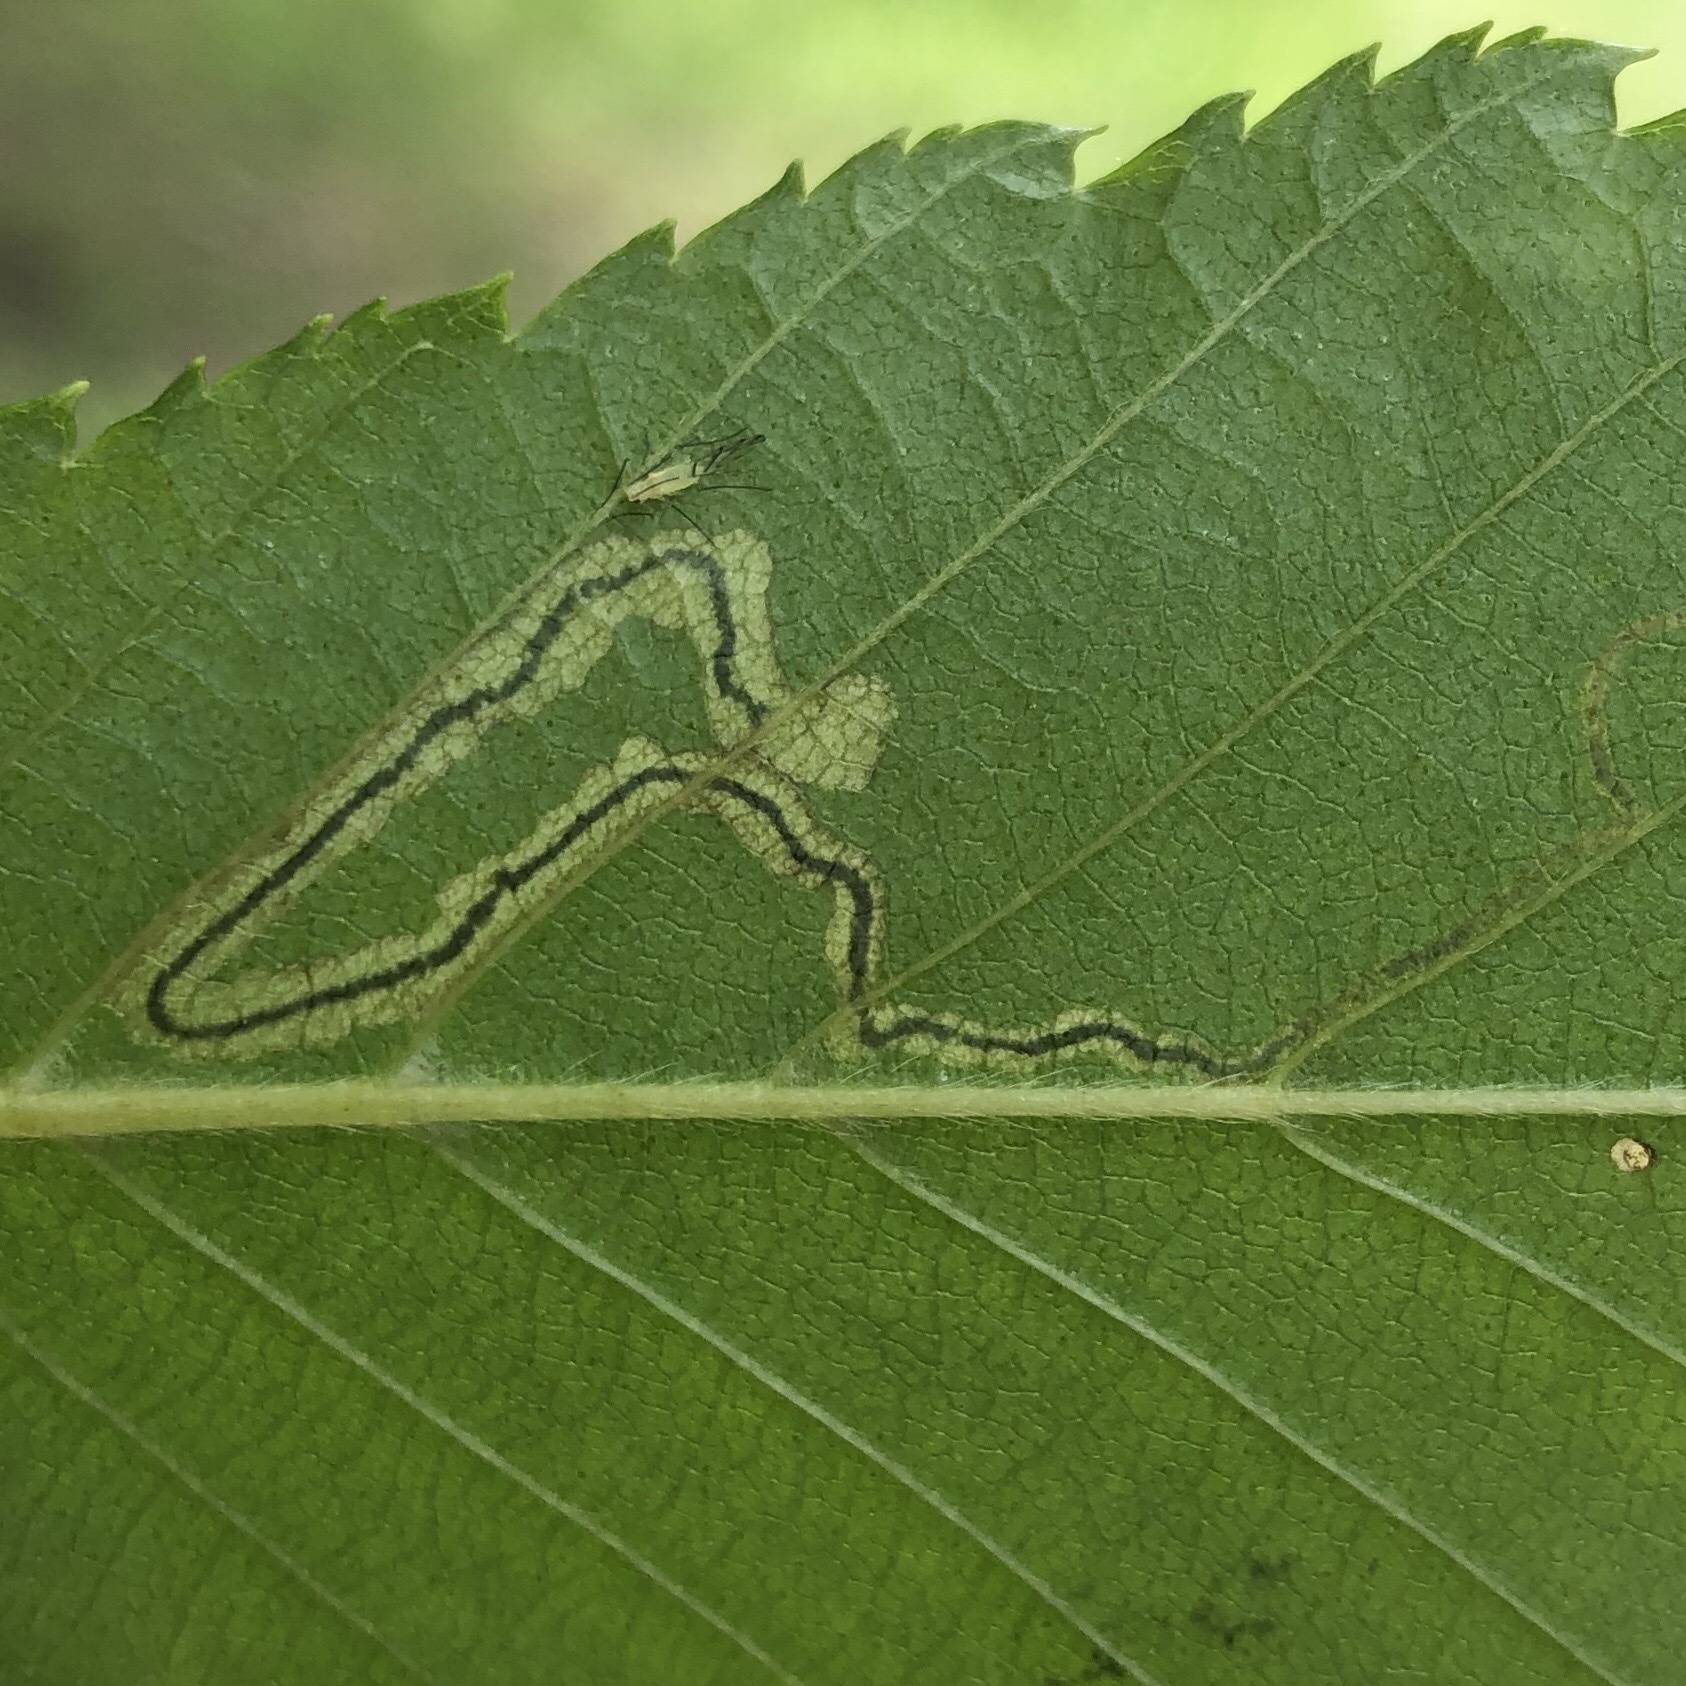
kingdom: Animalia
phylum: Arthropoda
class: Insecta
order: Lepidoptera
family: Nepticulidae
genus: Stigmella
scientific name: Stigmella lapponica
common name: Drab birch pigmy
